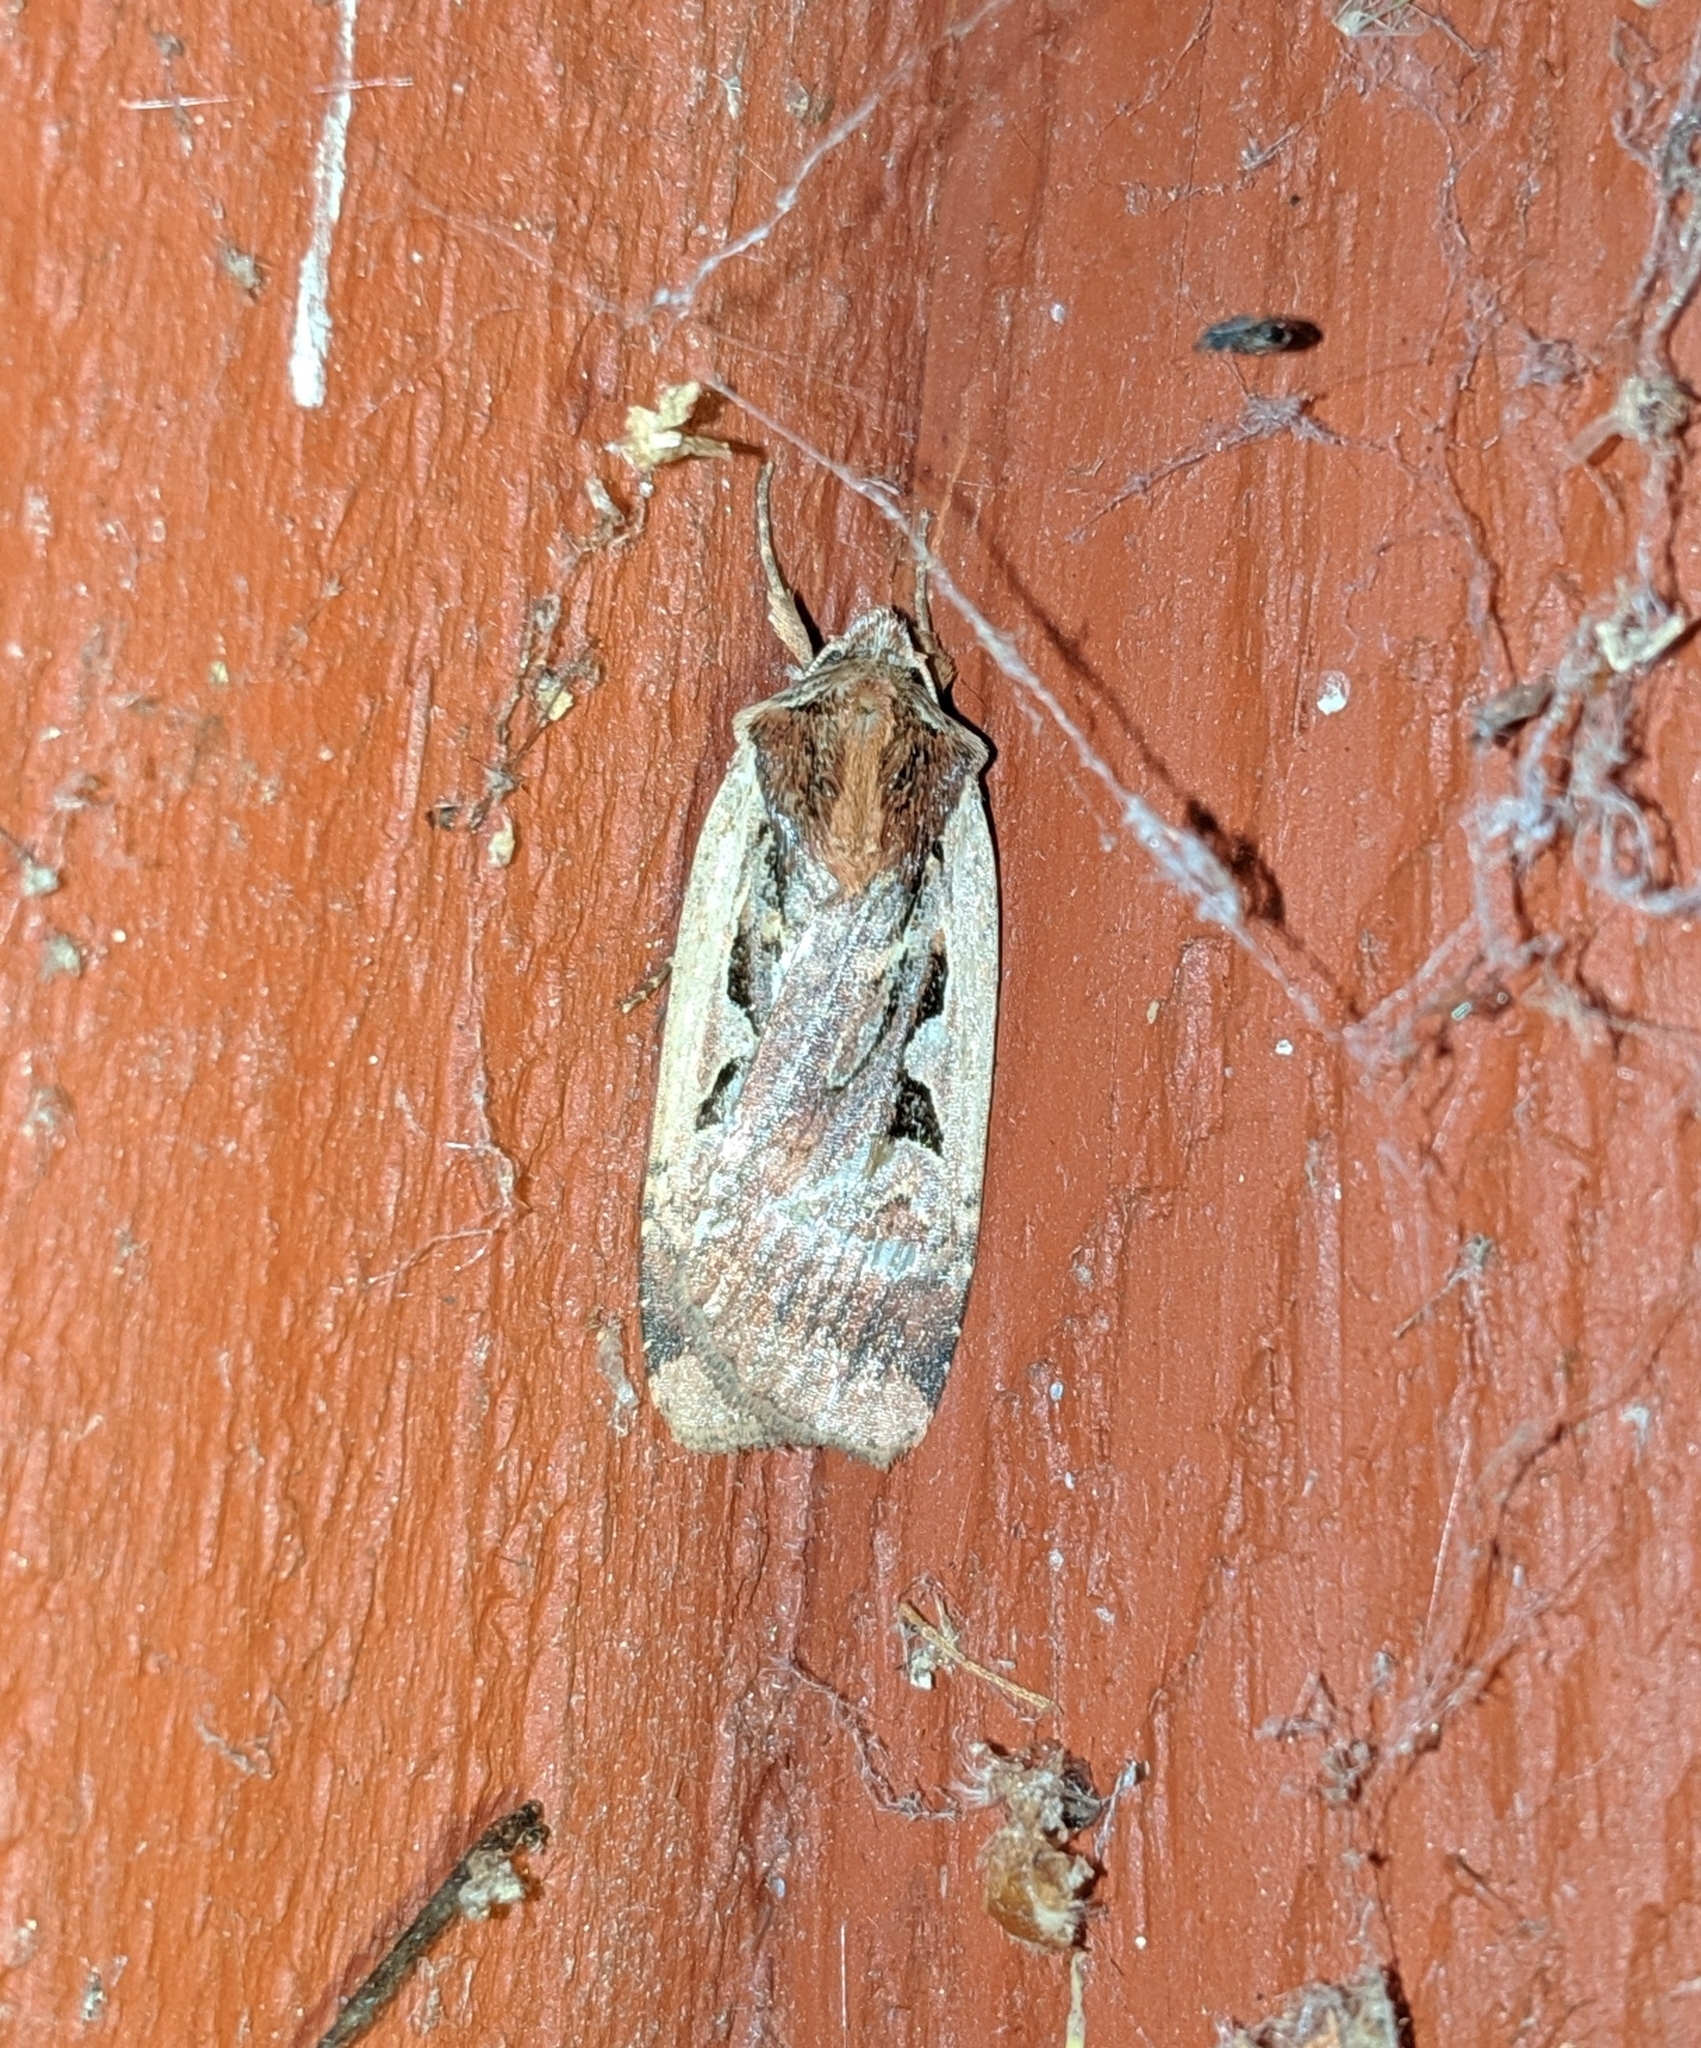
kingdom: Animalia
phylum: Arthropoda
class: Insecta
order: Lepidoptera
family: Noctuidae
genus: Parabagrotis
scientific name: Parabagrotis sulinaris
